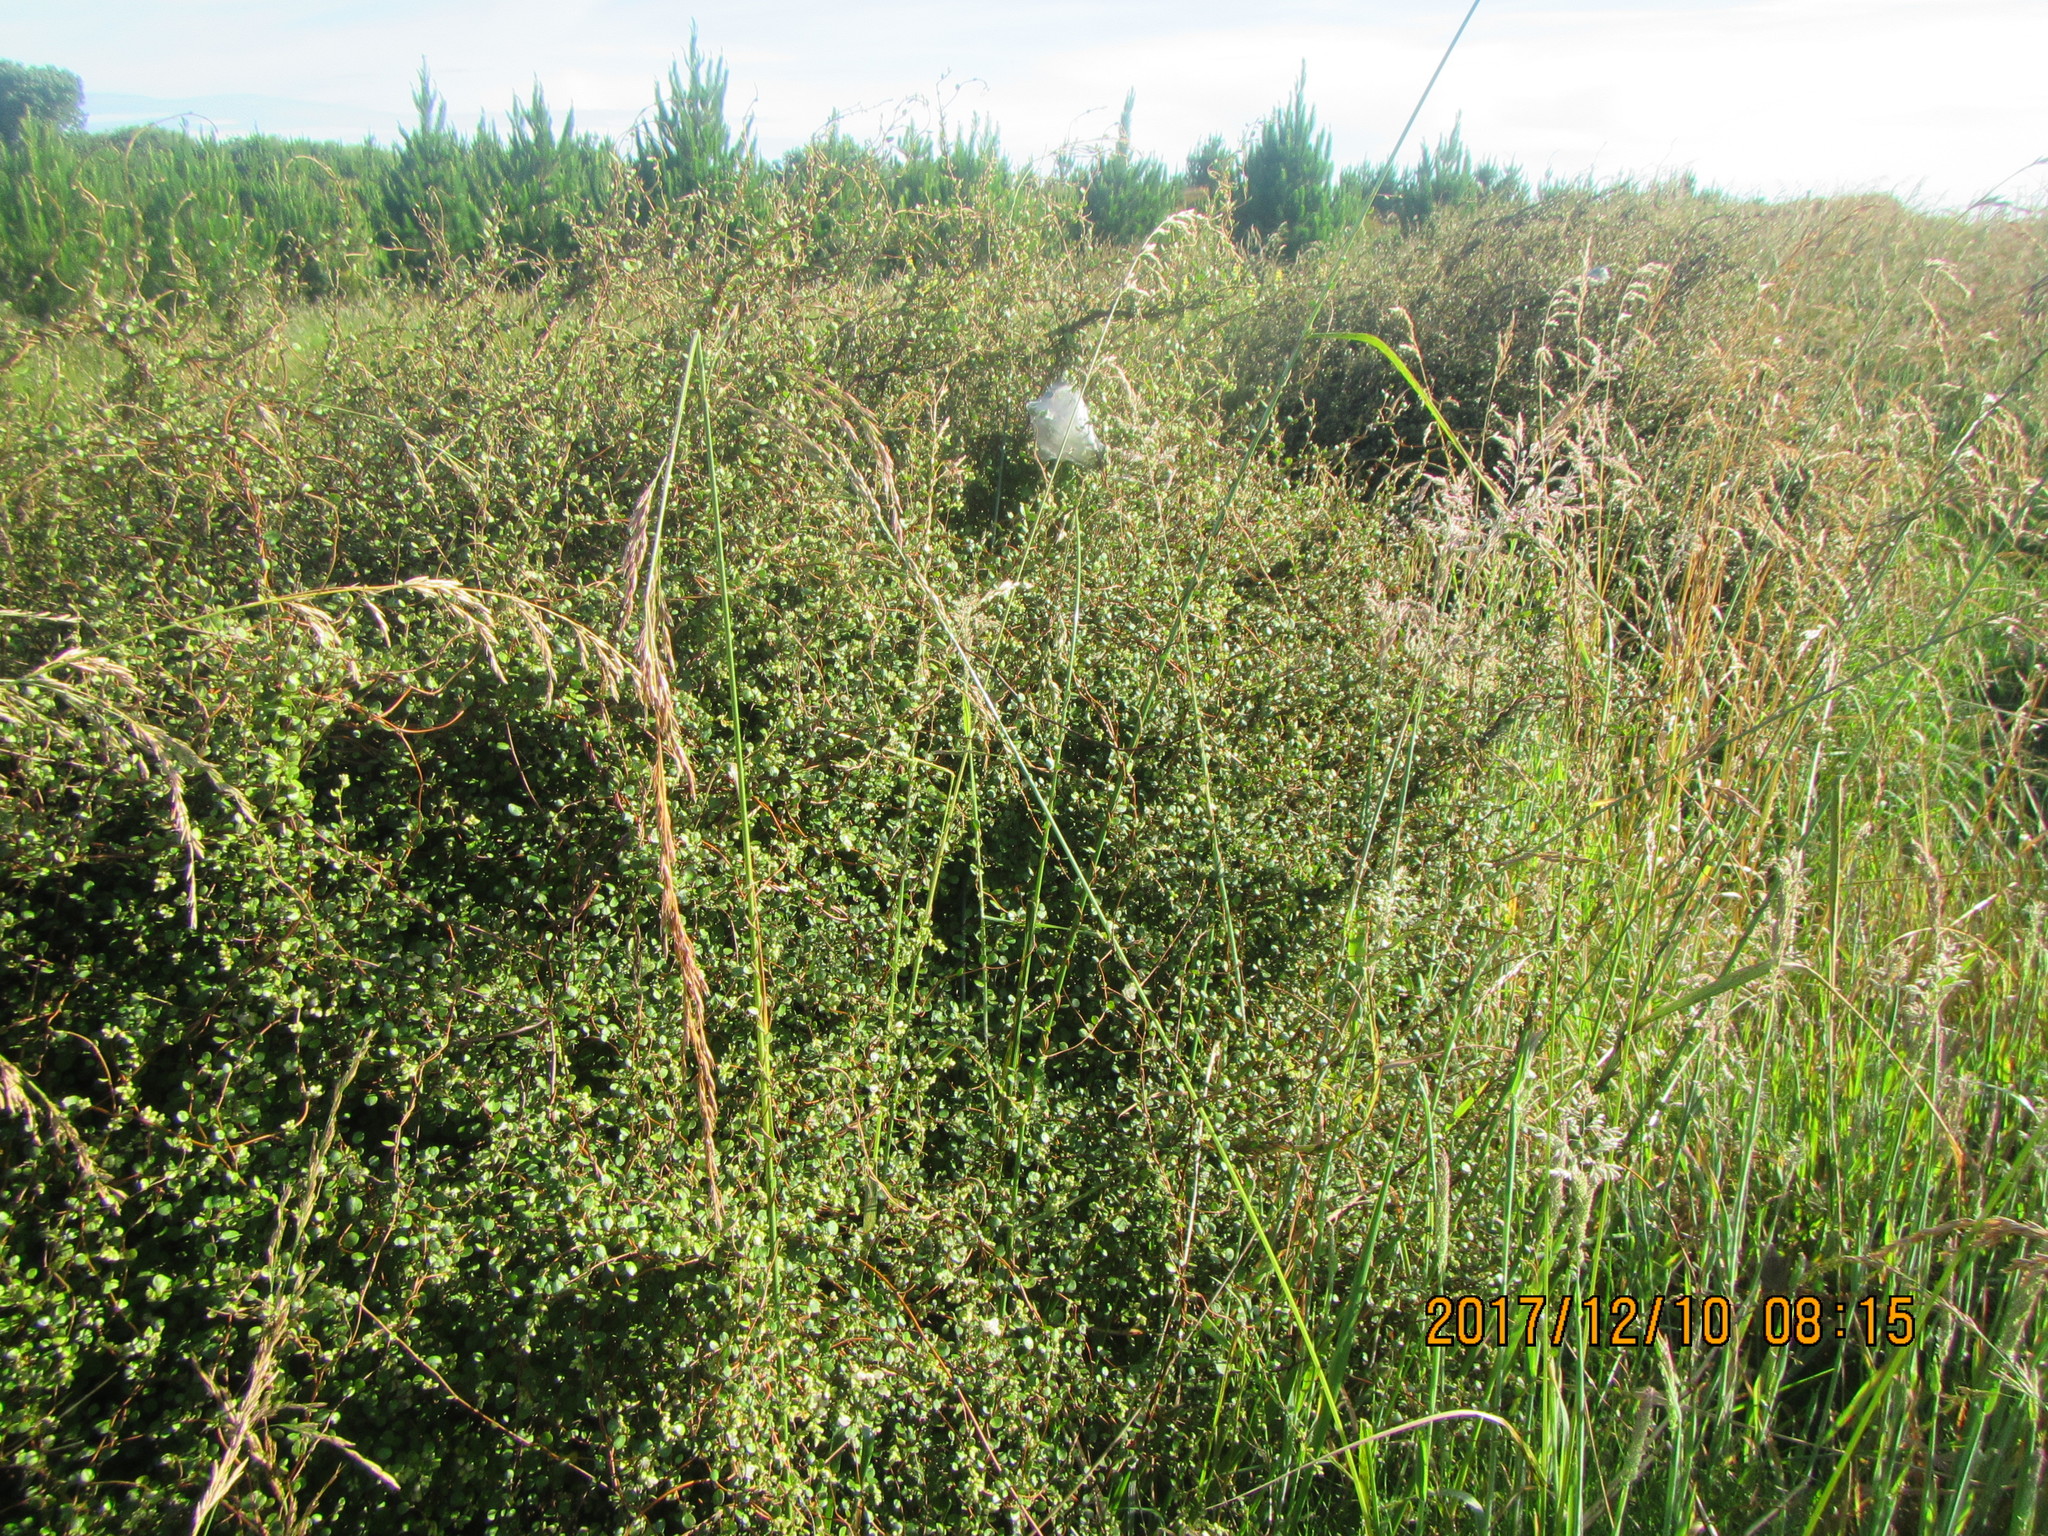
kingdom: Plantae
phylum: Tracheophyta
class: Magnoliopsida
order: Caryophyllales
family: Polygonaceae
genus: Muehlenbeckia
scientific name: Muehlenbeckia complexa
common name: Wireplant
